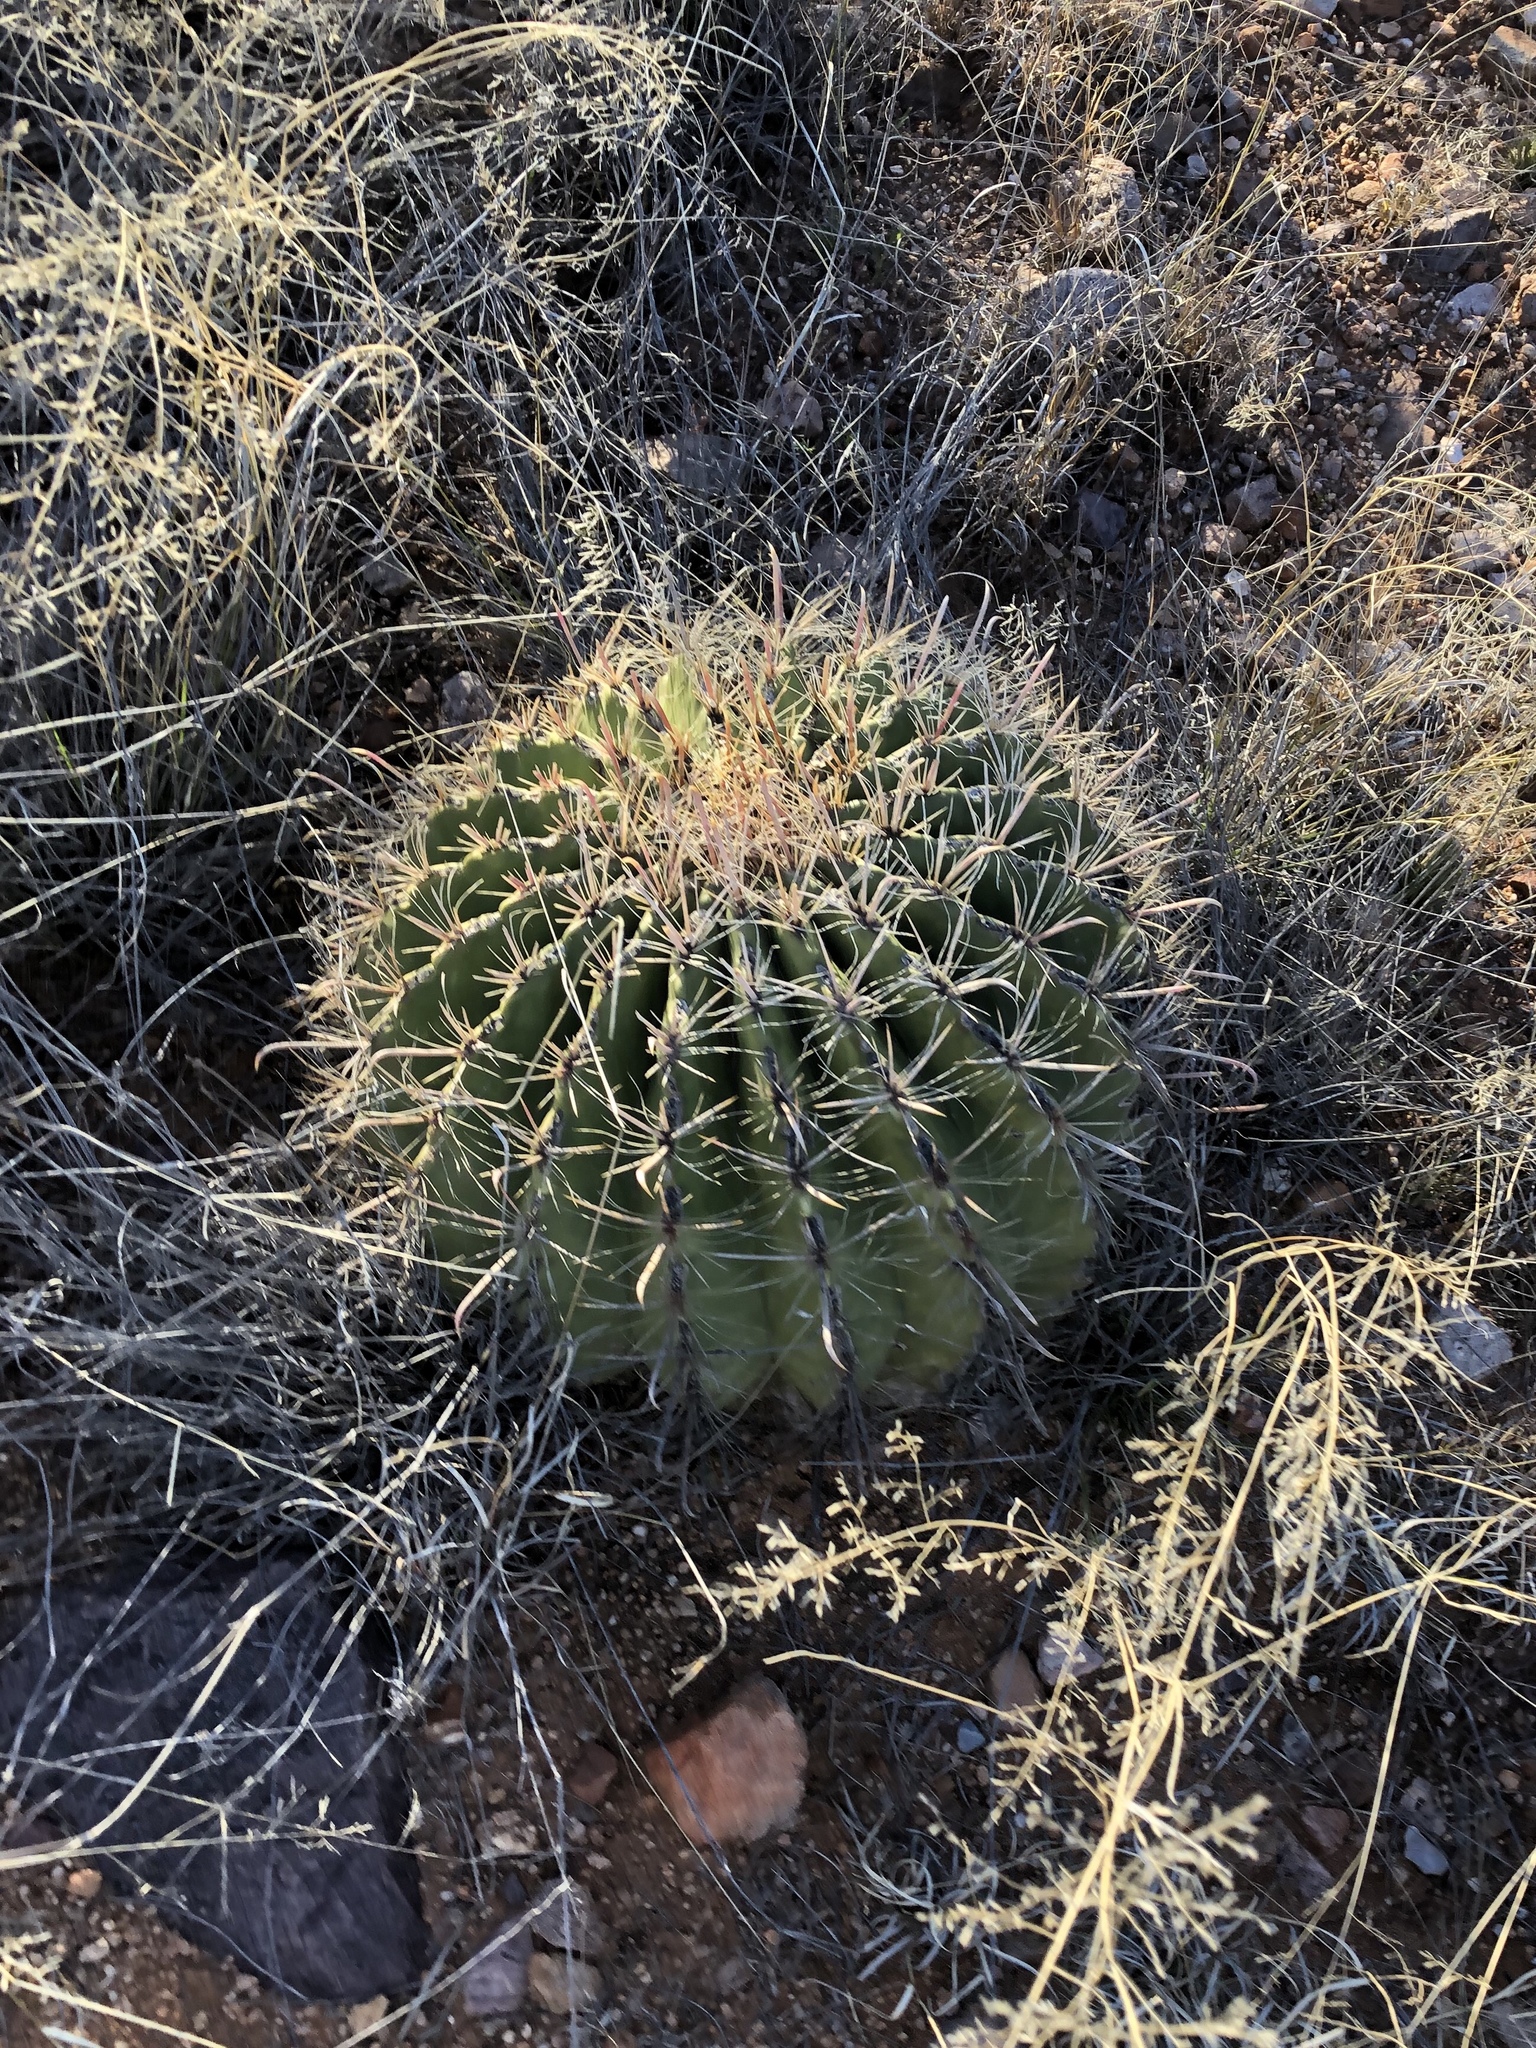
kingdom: Plantae
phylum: Tracheophyta
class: Magnoliopsida
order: Caryophyllales
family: Cactaceae
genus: Ferocactus
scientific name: Ferocactus wislizeni
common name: Candy barrel cactus
